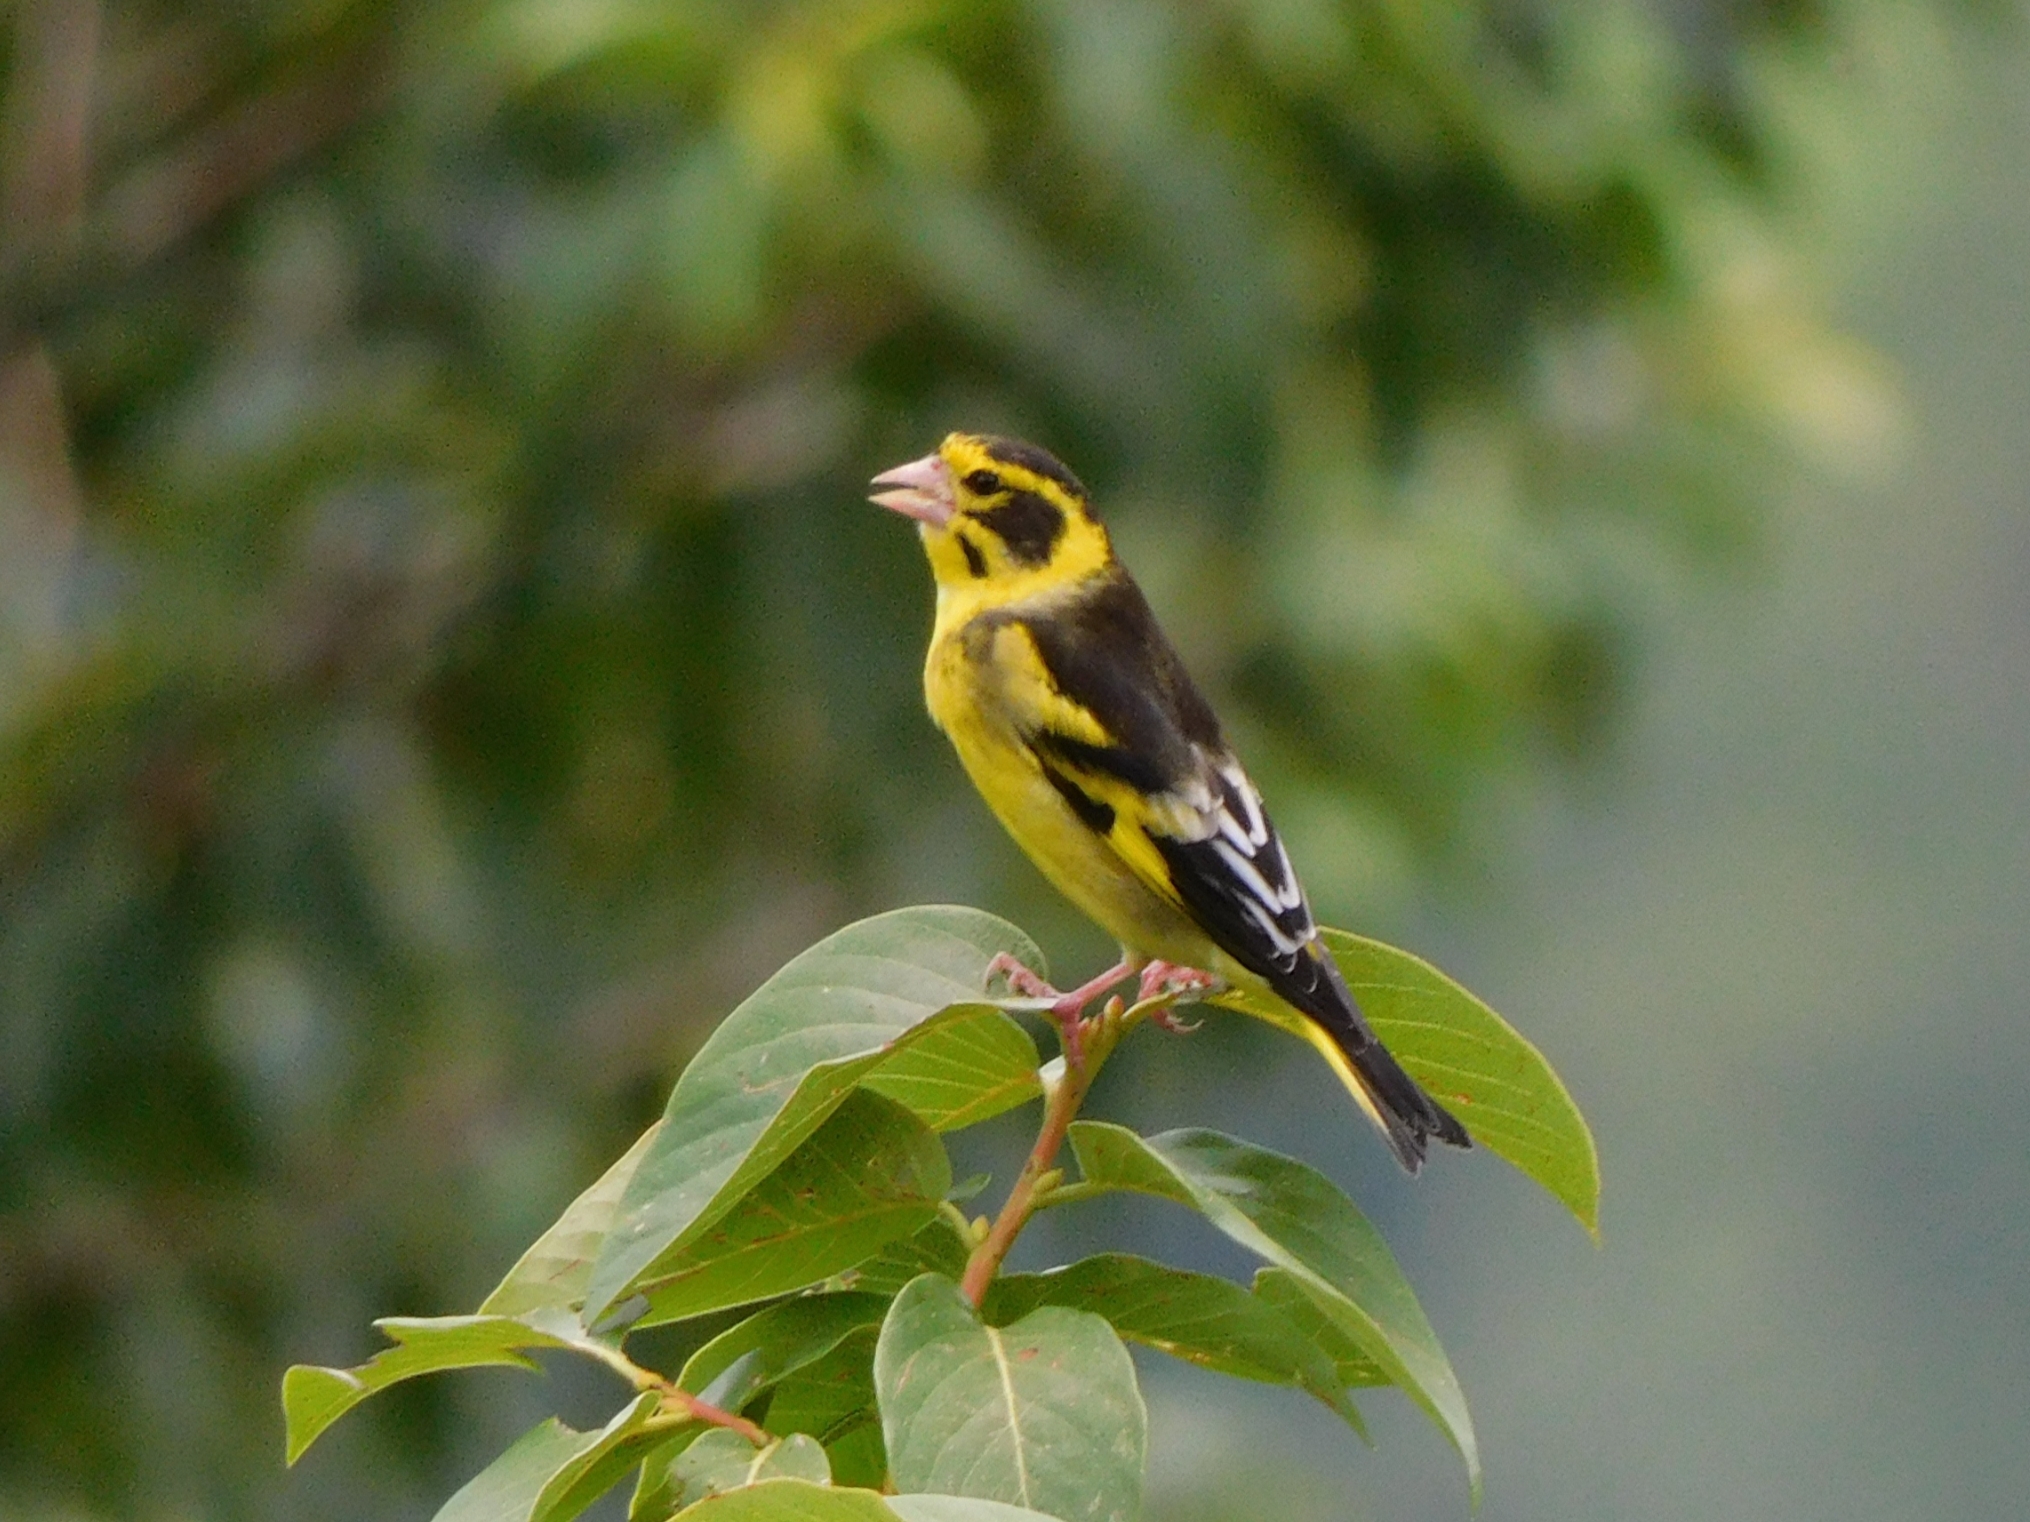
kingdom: Animalia
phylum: Chordata
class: Aves
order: Passeriformes
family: Fringillidae
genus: Chloris
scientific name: Chloris spinoides
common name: Yellow-breasted greenfinch
